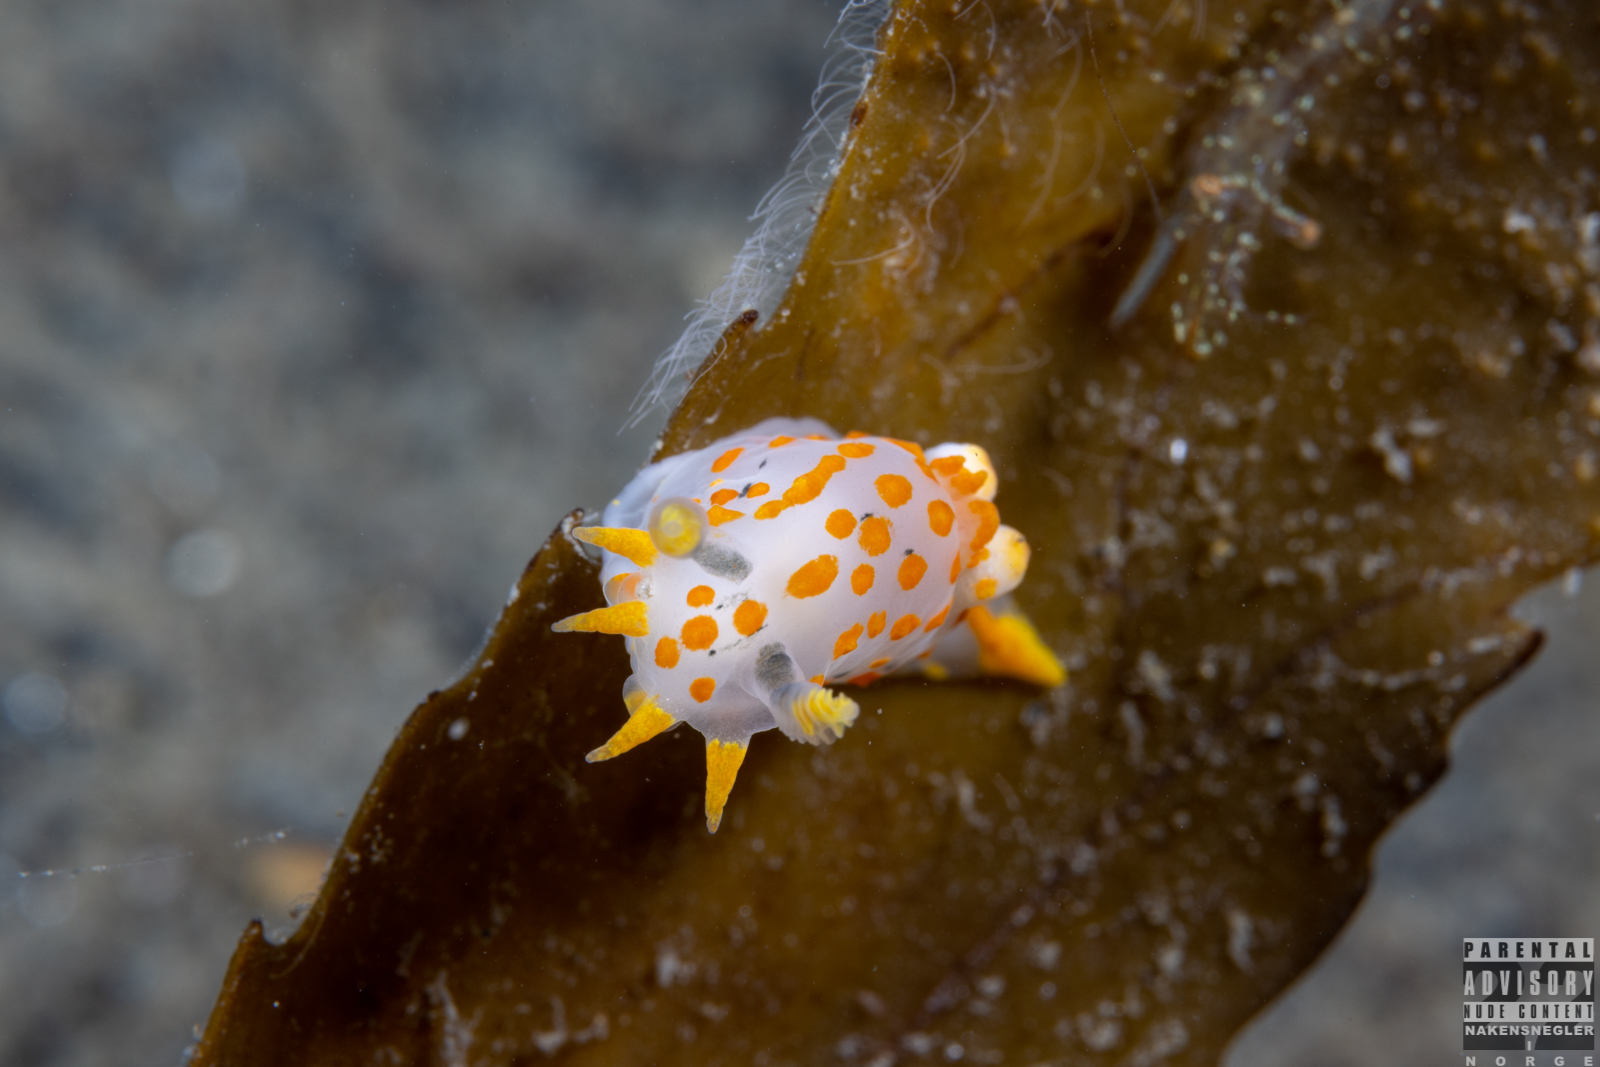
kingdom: Animalia
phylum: Mollusca
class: Gastropoda
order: Nudibranchia
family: Polyceridae
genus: Polycera
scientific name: Polycera quadrilineata
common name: Four-striped polycera
